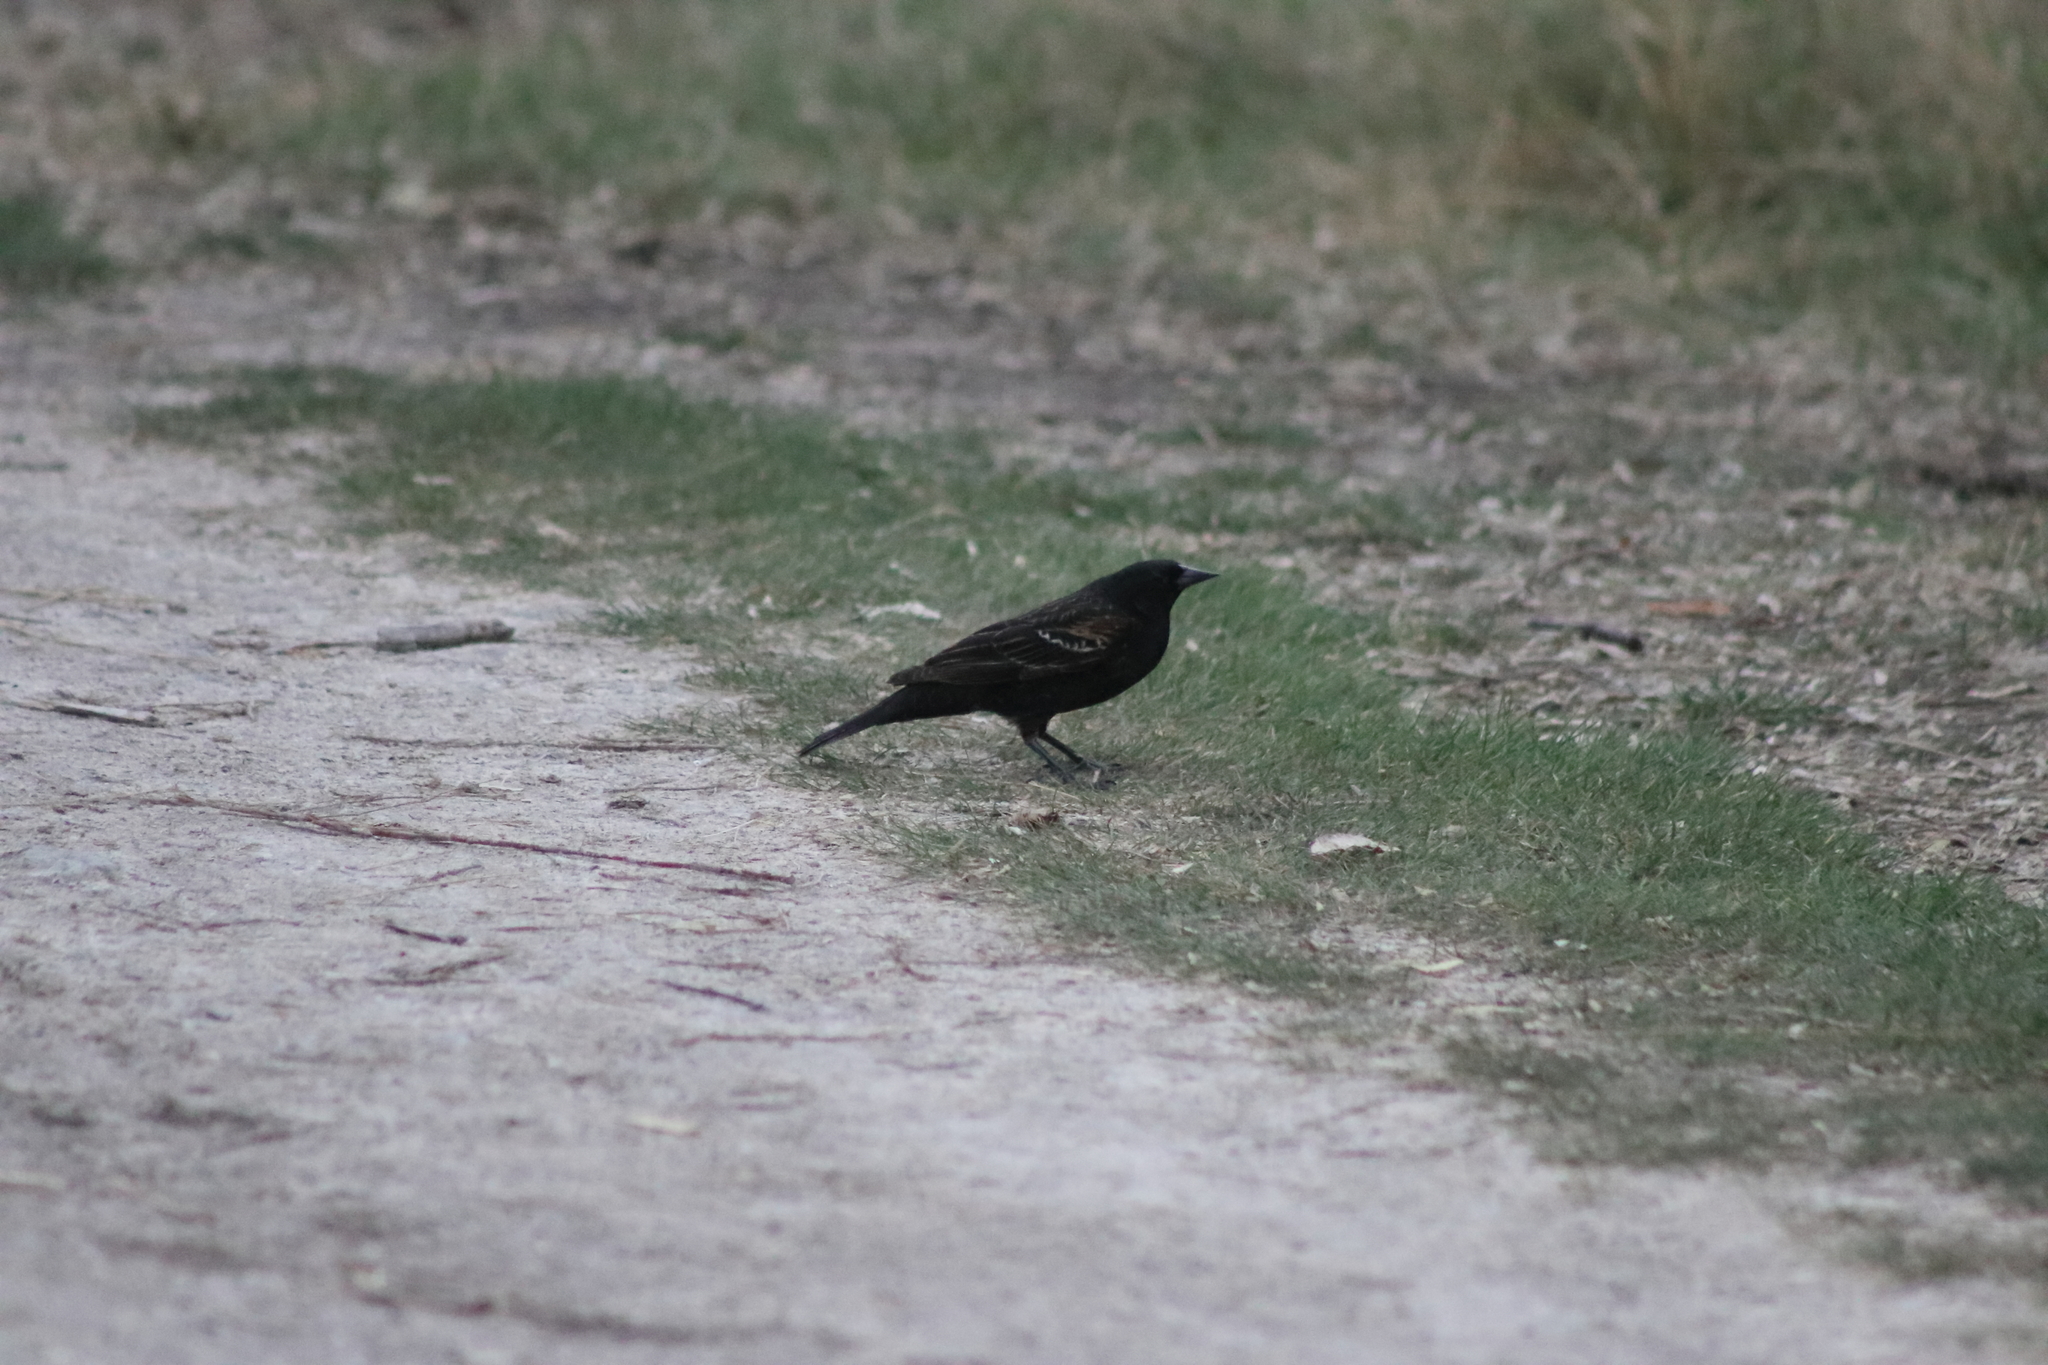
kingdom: Animalia
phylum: Chordata
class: Aves
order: Passeriformes
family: Icteridae
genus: Agelaius
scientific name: Agelaius phoeniceus
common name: Red-winged blackbird
